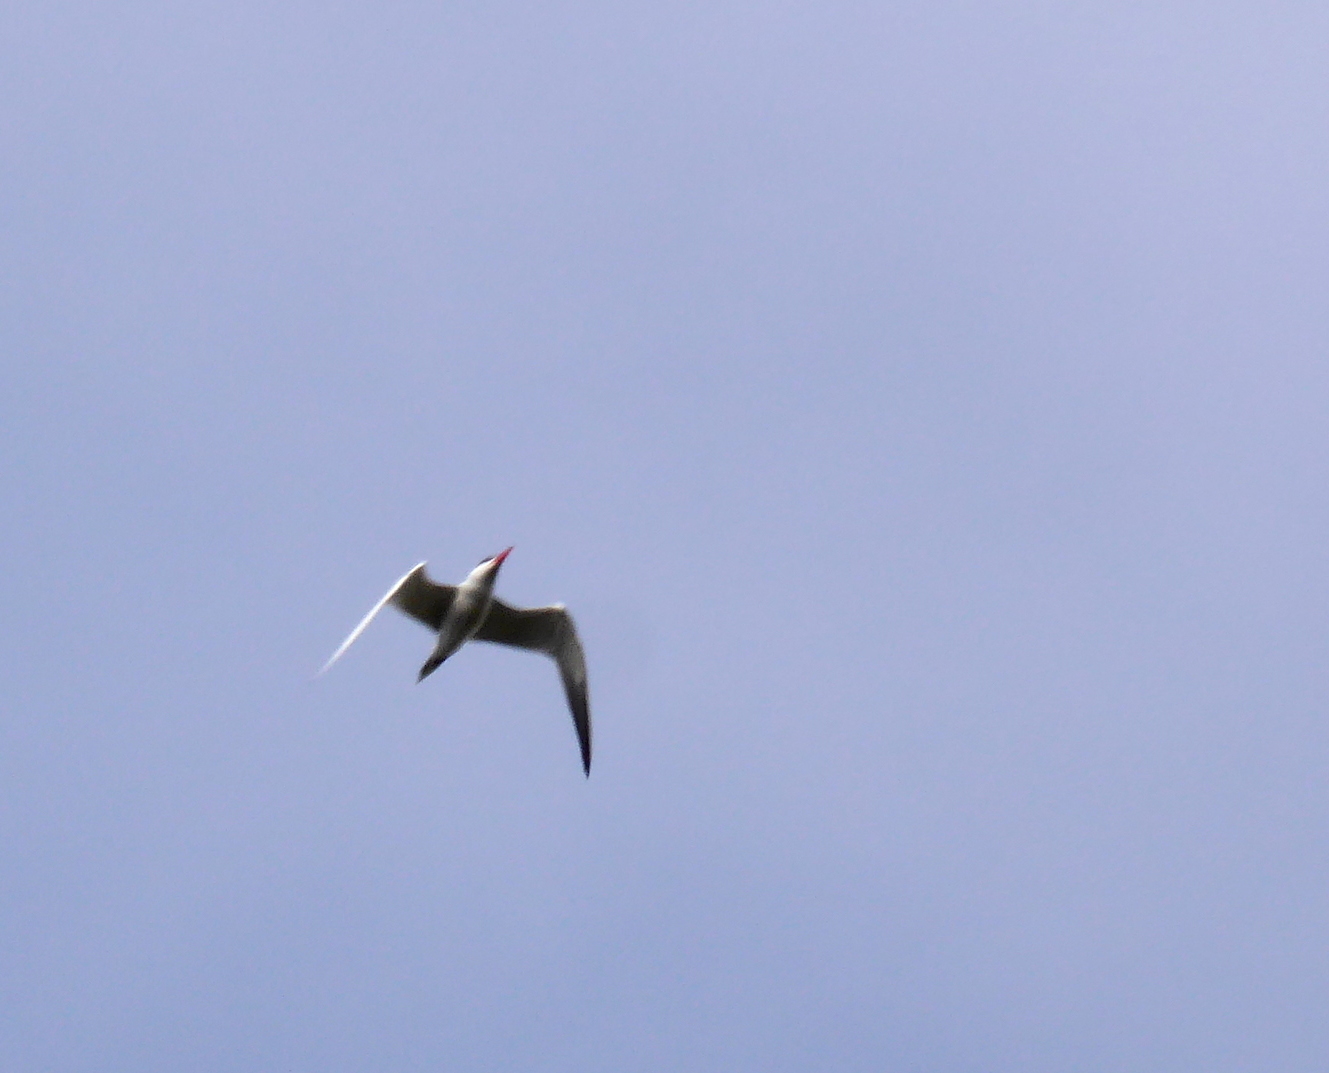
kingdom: Animalia
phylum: Chordata
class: Aves
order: Charadriiformes
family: Laridae
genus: Hydroprogne
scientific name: Hydroprogne caspia
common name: Caspian tern
